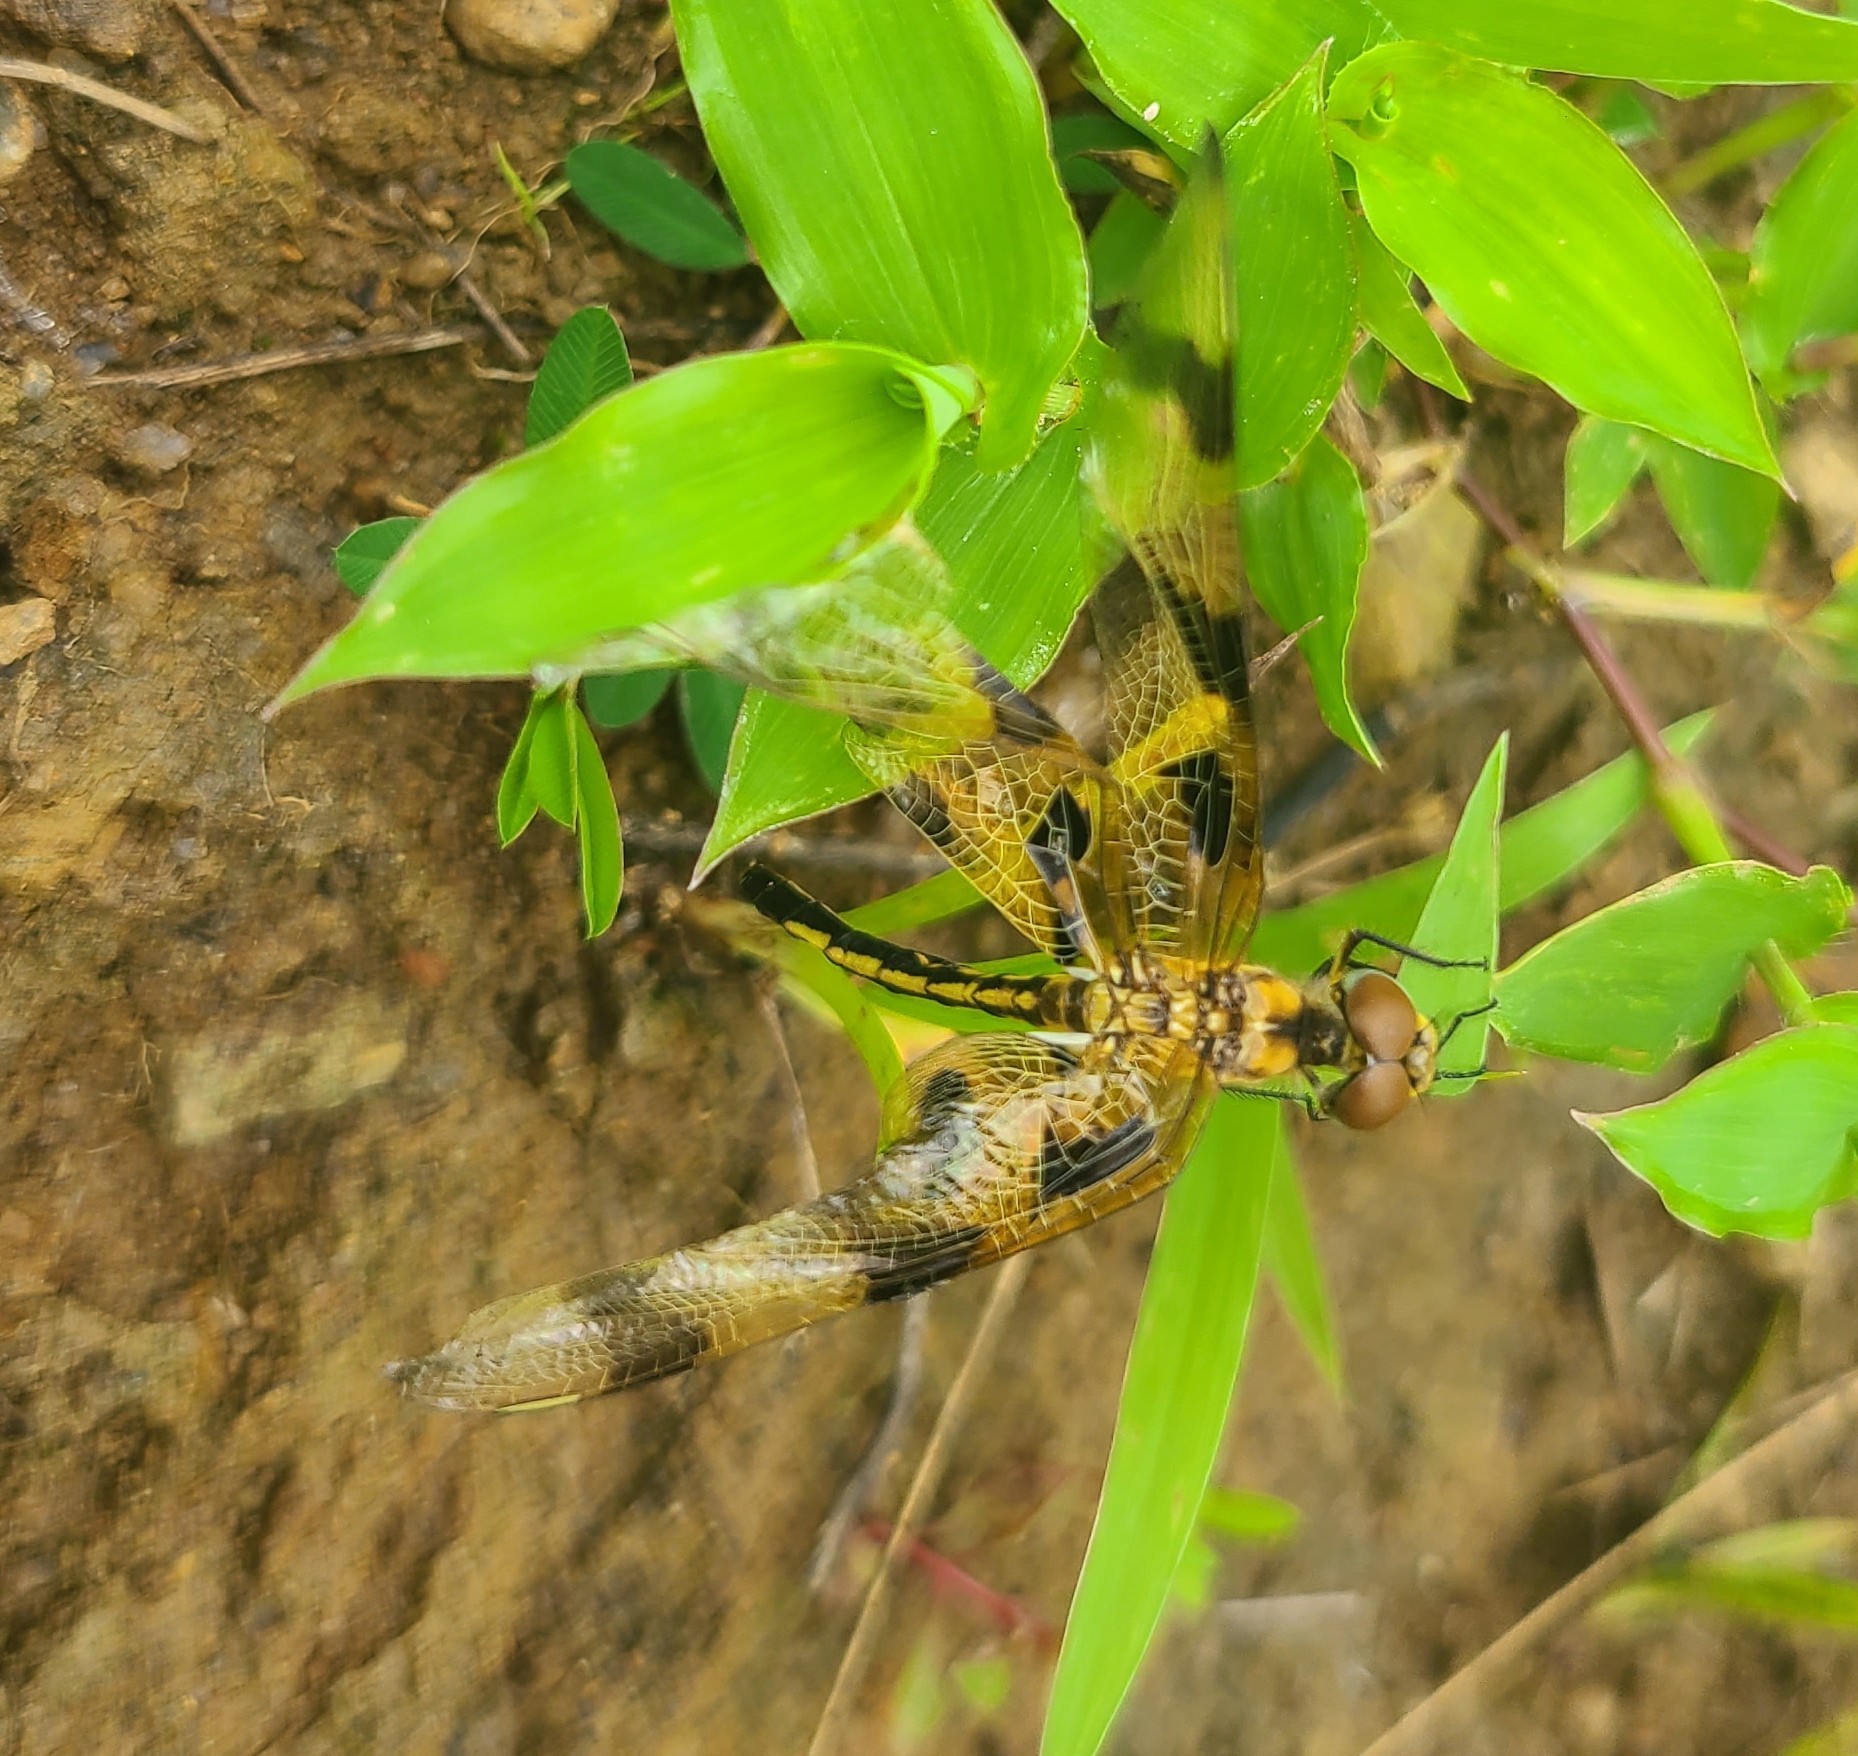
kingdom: Animalia
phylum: Arthropoda
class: Insecta
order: Odonata
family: Libellulidae
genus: Celithemis
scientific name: Celithemis eponina
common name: Halloween pennant
